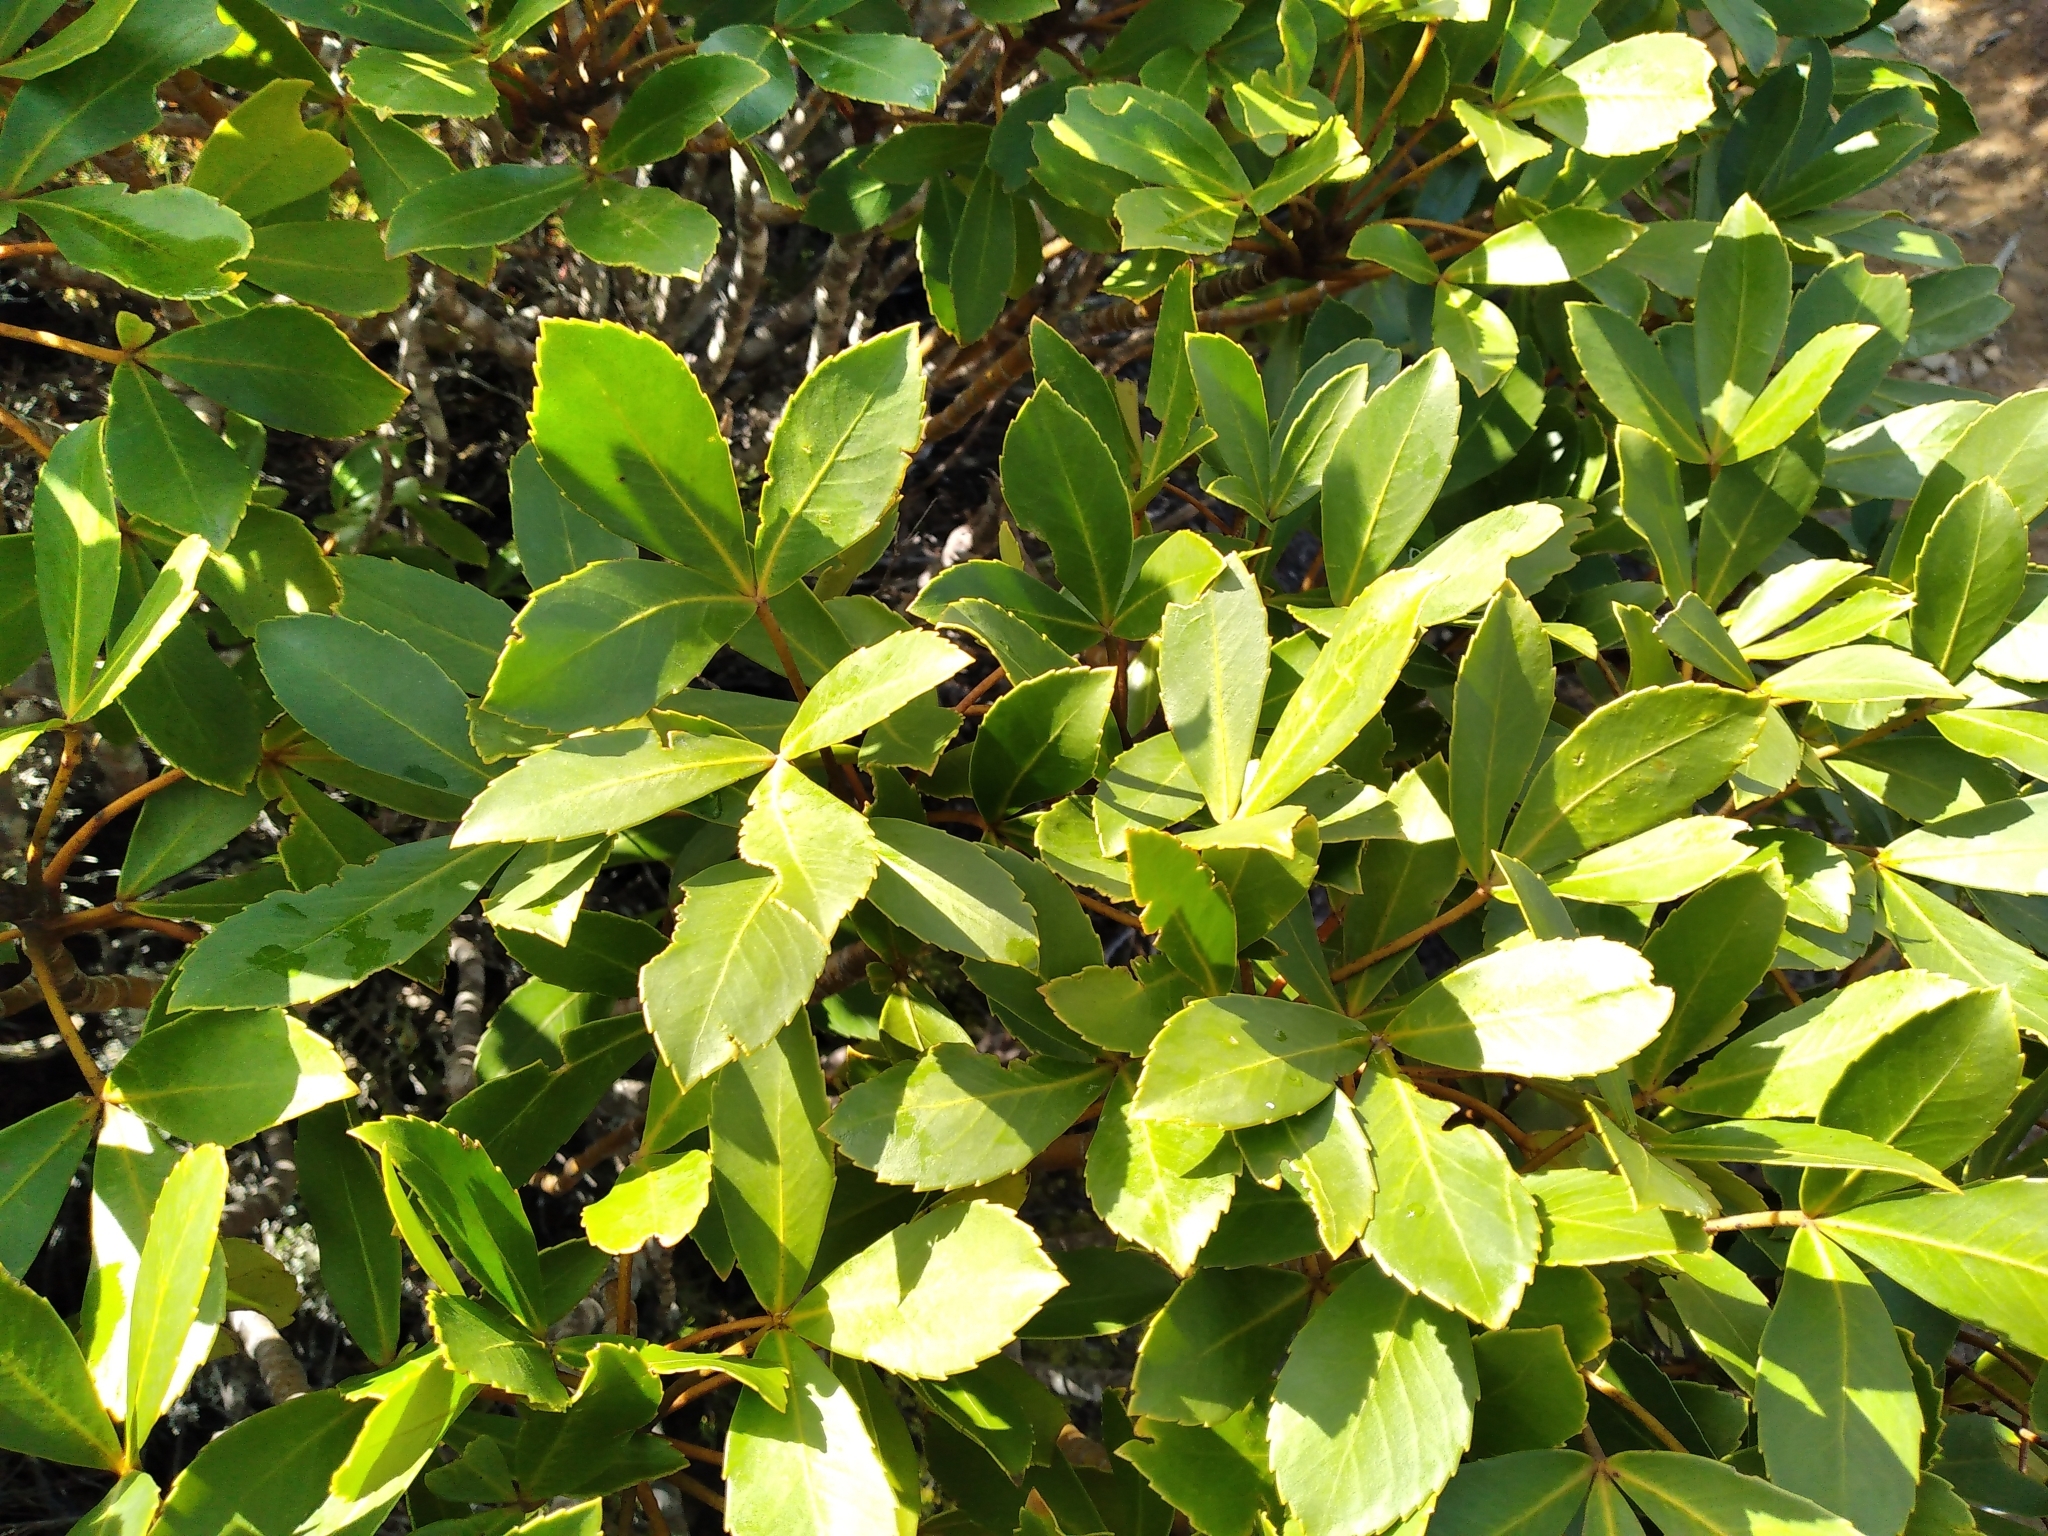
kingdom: Plantae
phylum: Tracheophyta
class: Magnoliopsida
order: Apiales
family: Araliaceae
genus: Neopanax
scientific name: Neopanax colensoi
